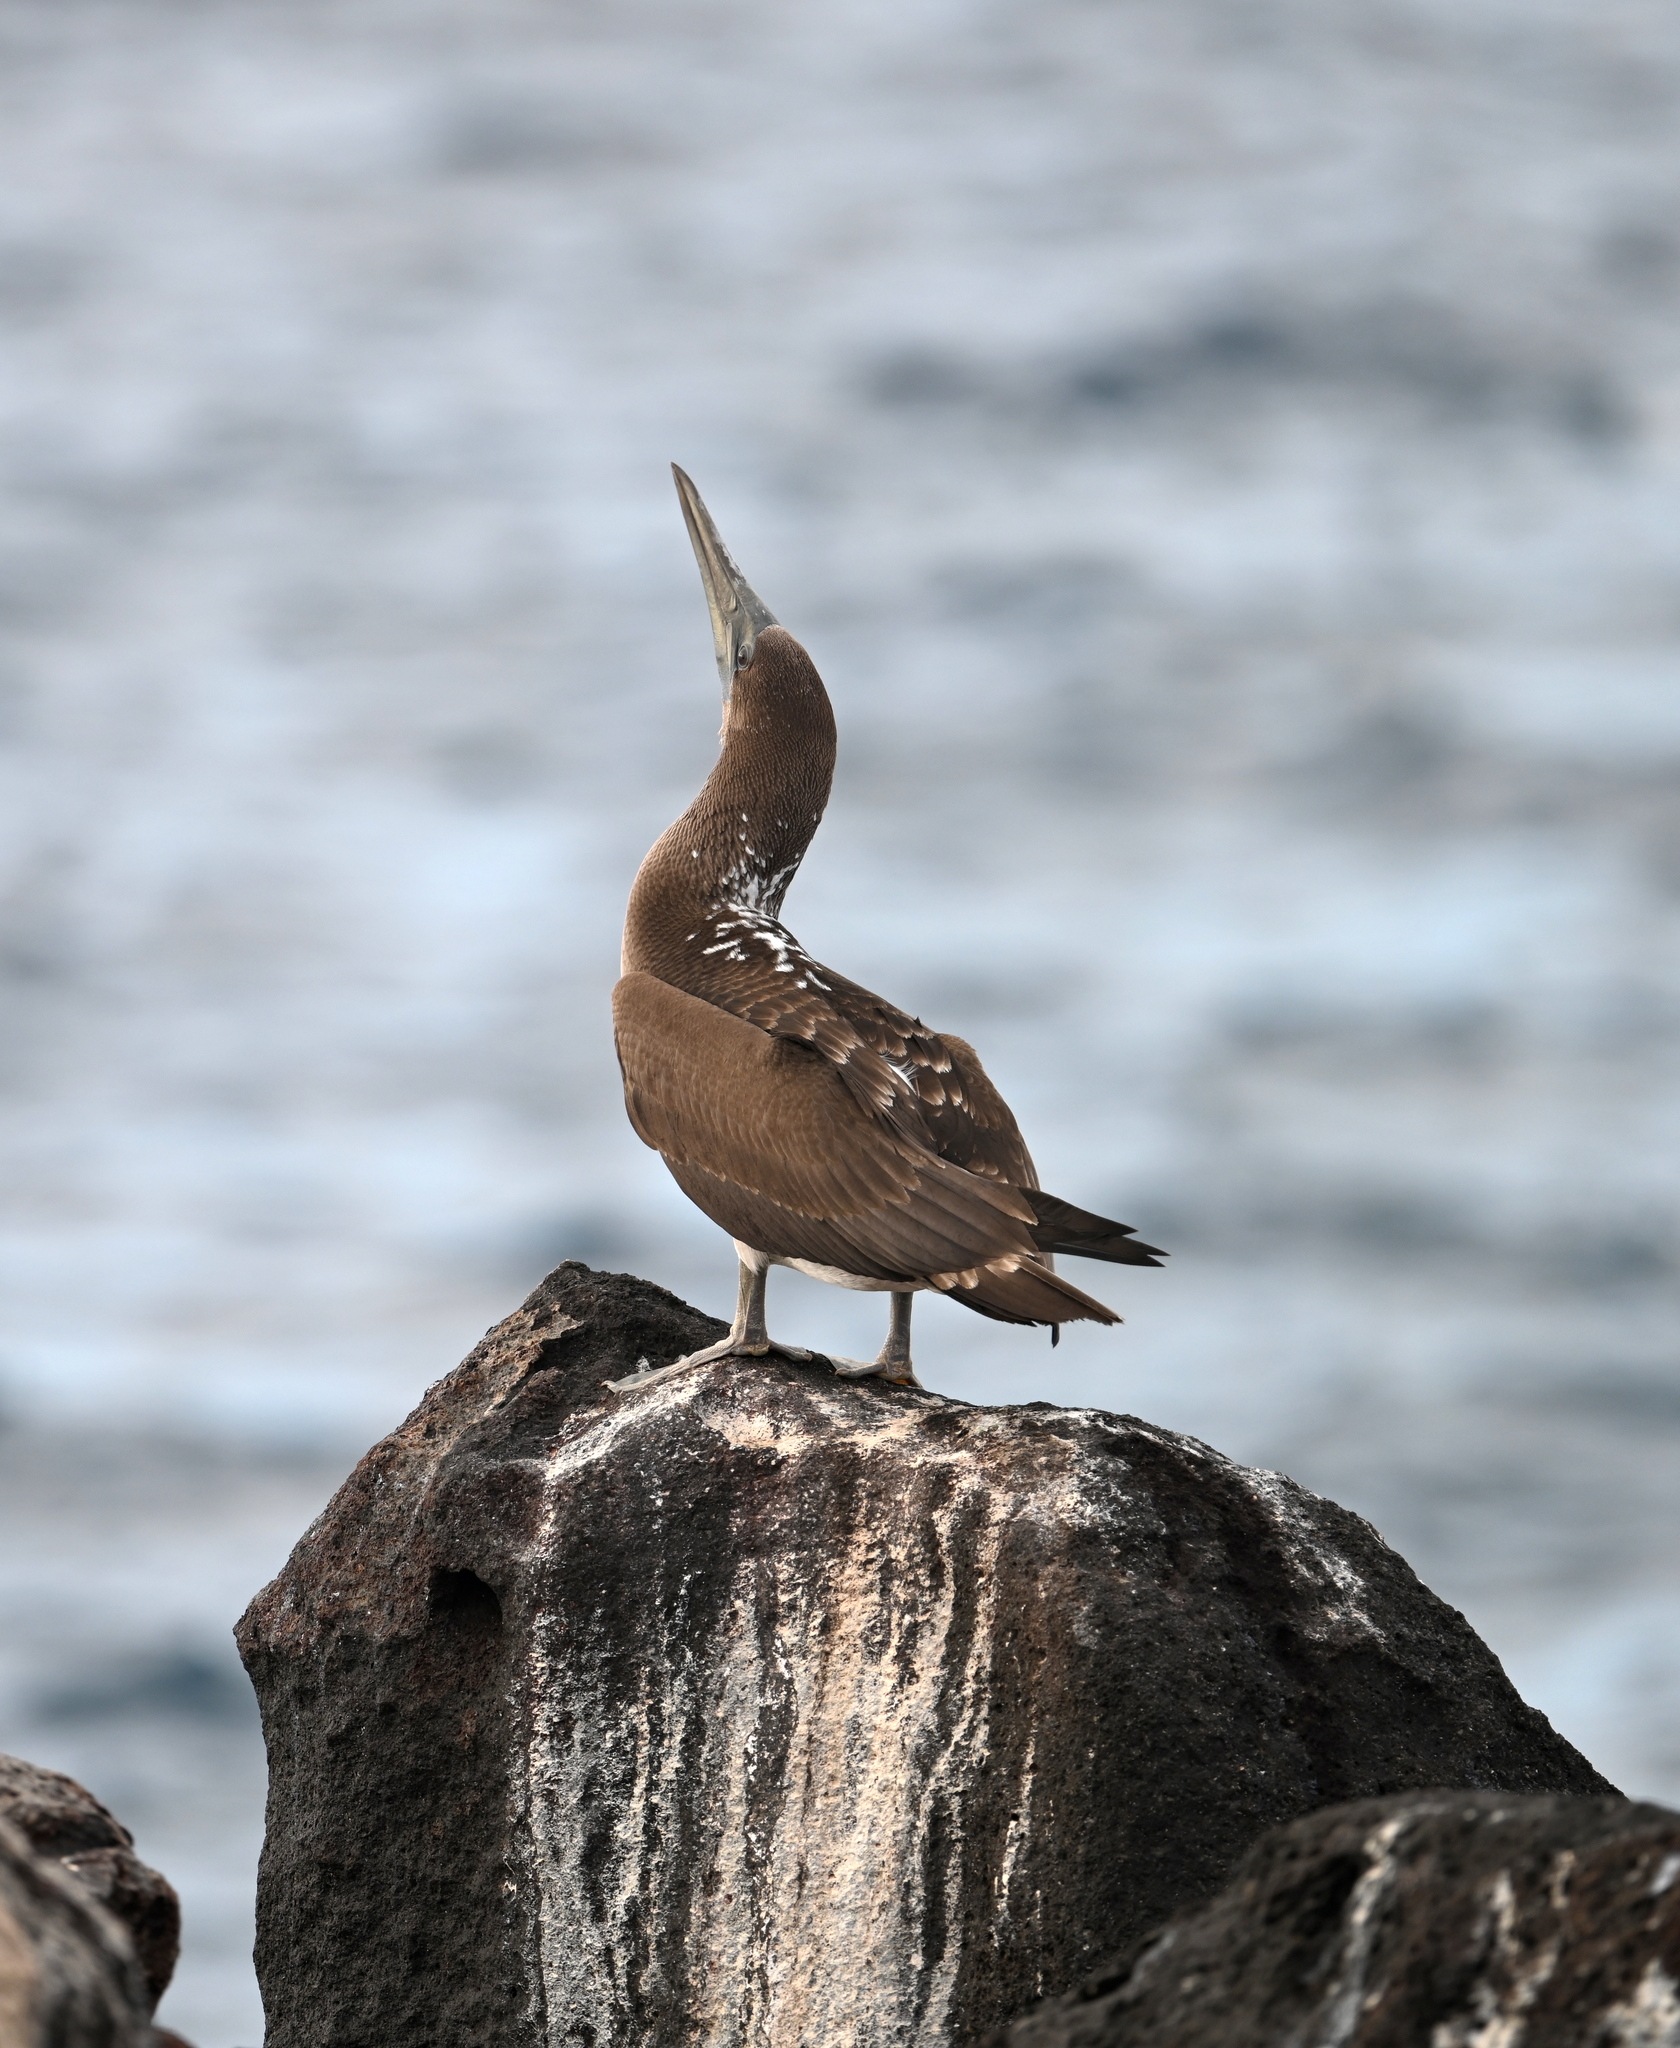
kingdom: Animalia
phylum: Chordata
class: Aves
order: Suliformes
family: Sulidae
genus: Sula
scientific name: Sula nebouxii
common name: Blue-footed booby
